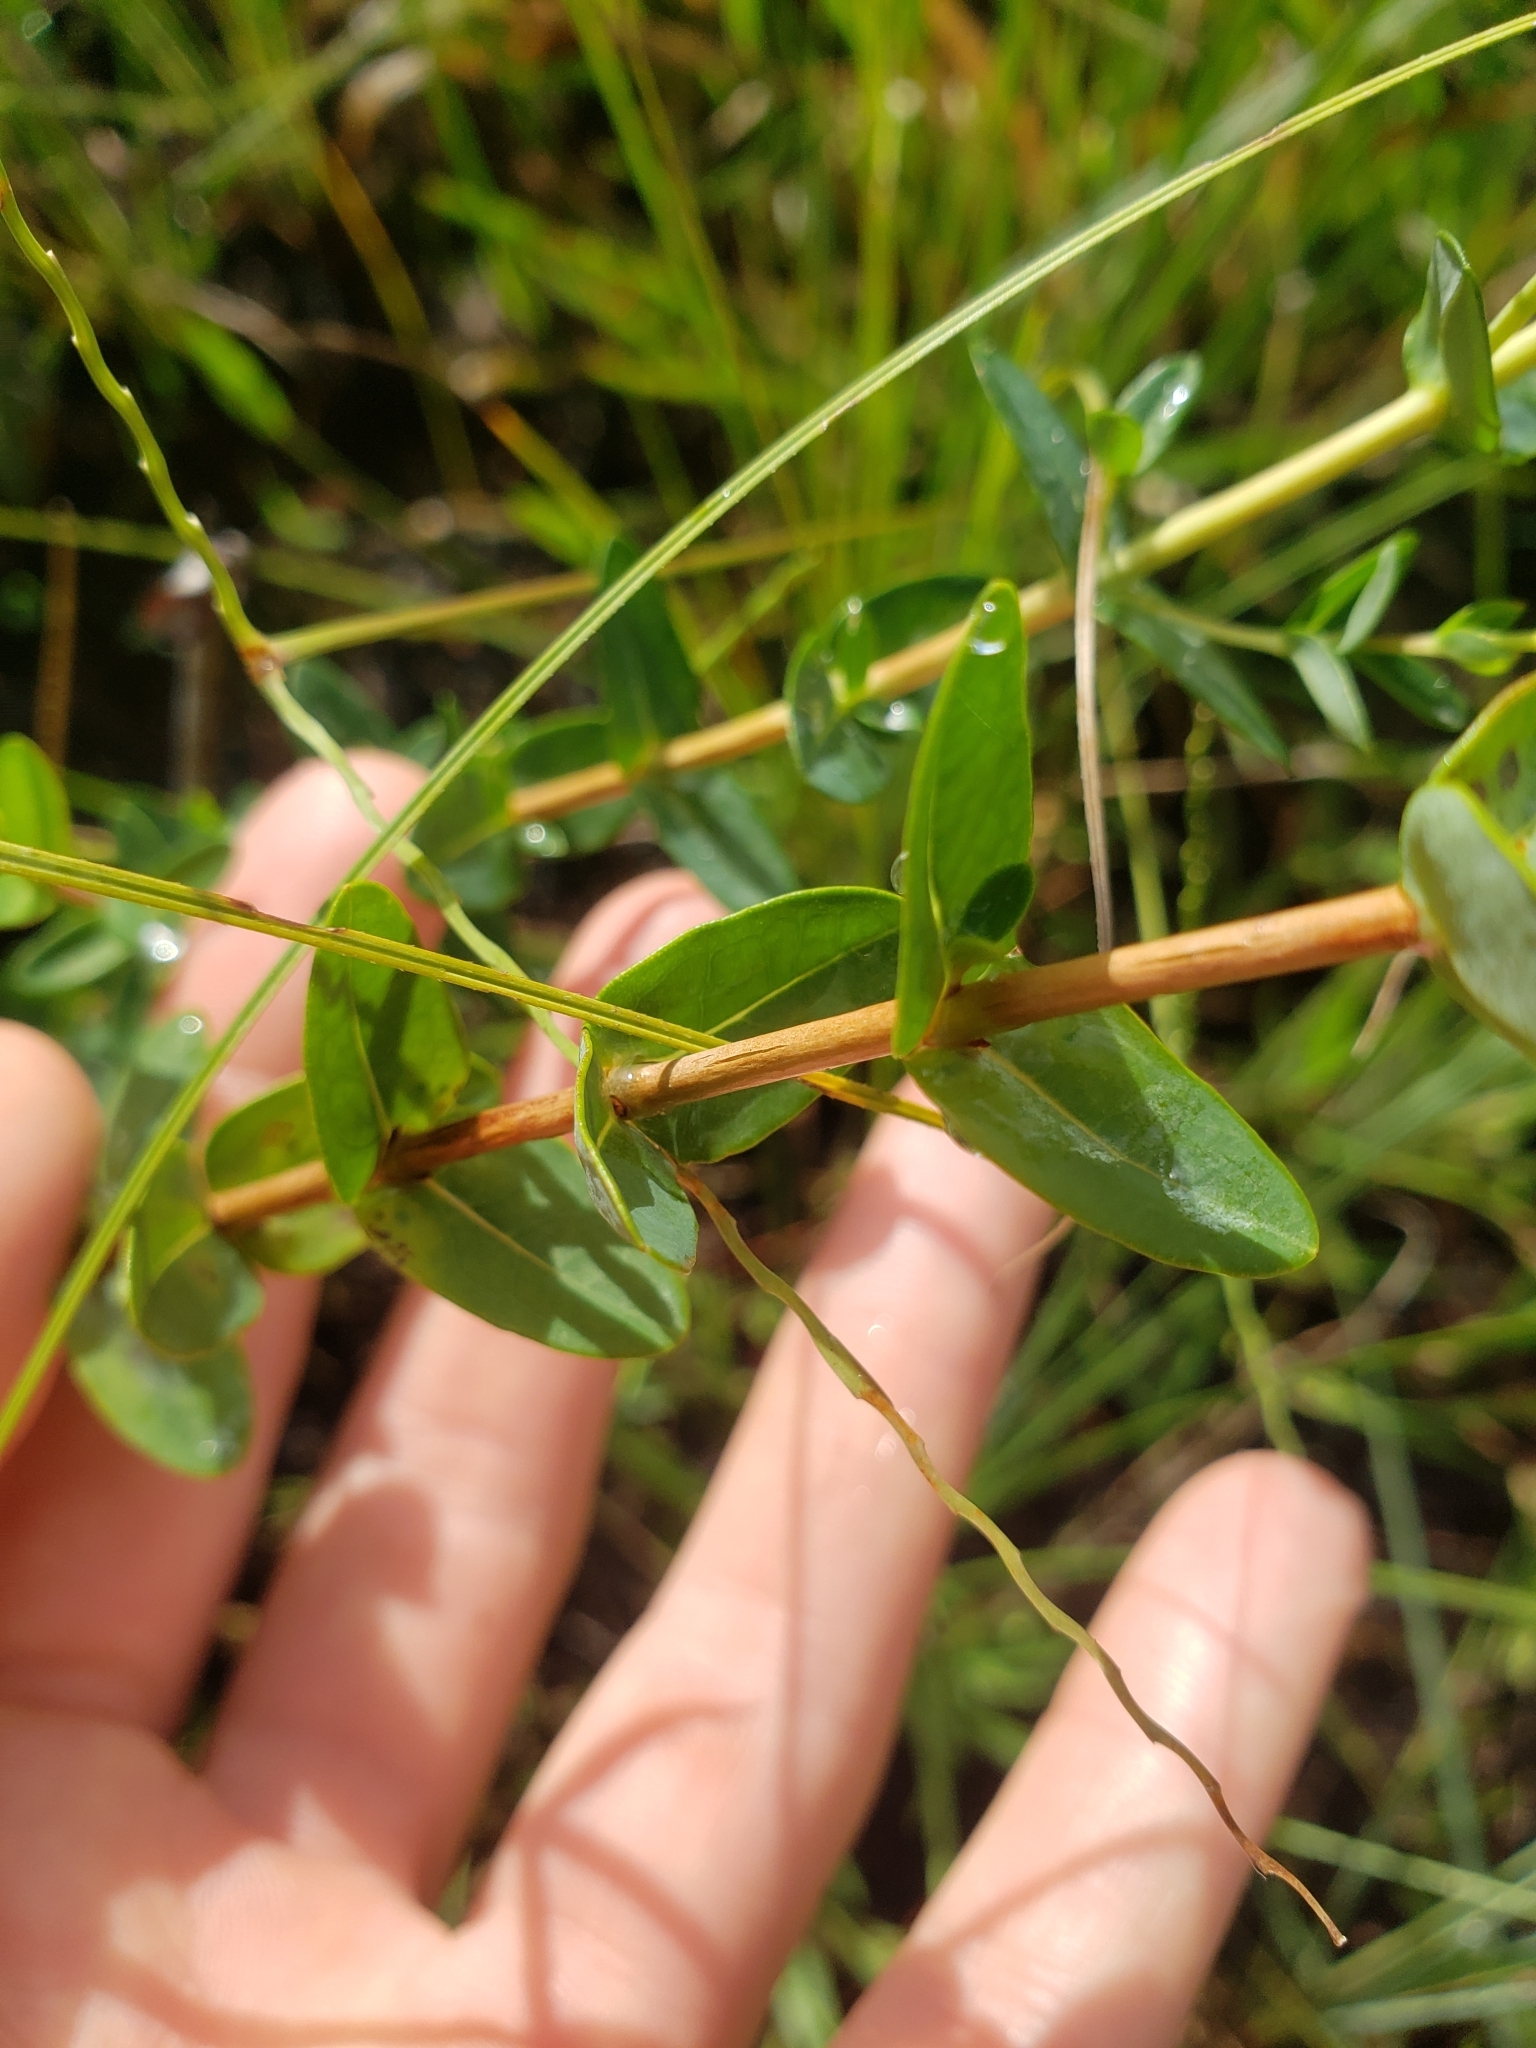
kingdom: Plantae
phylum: Tracheophyta
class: Magnoliopsida
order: Malpighiales
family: Hypericaceae
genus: Hypericum
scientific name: Hypericum myrtifolium
